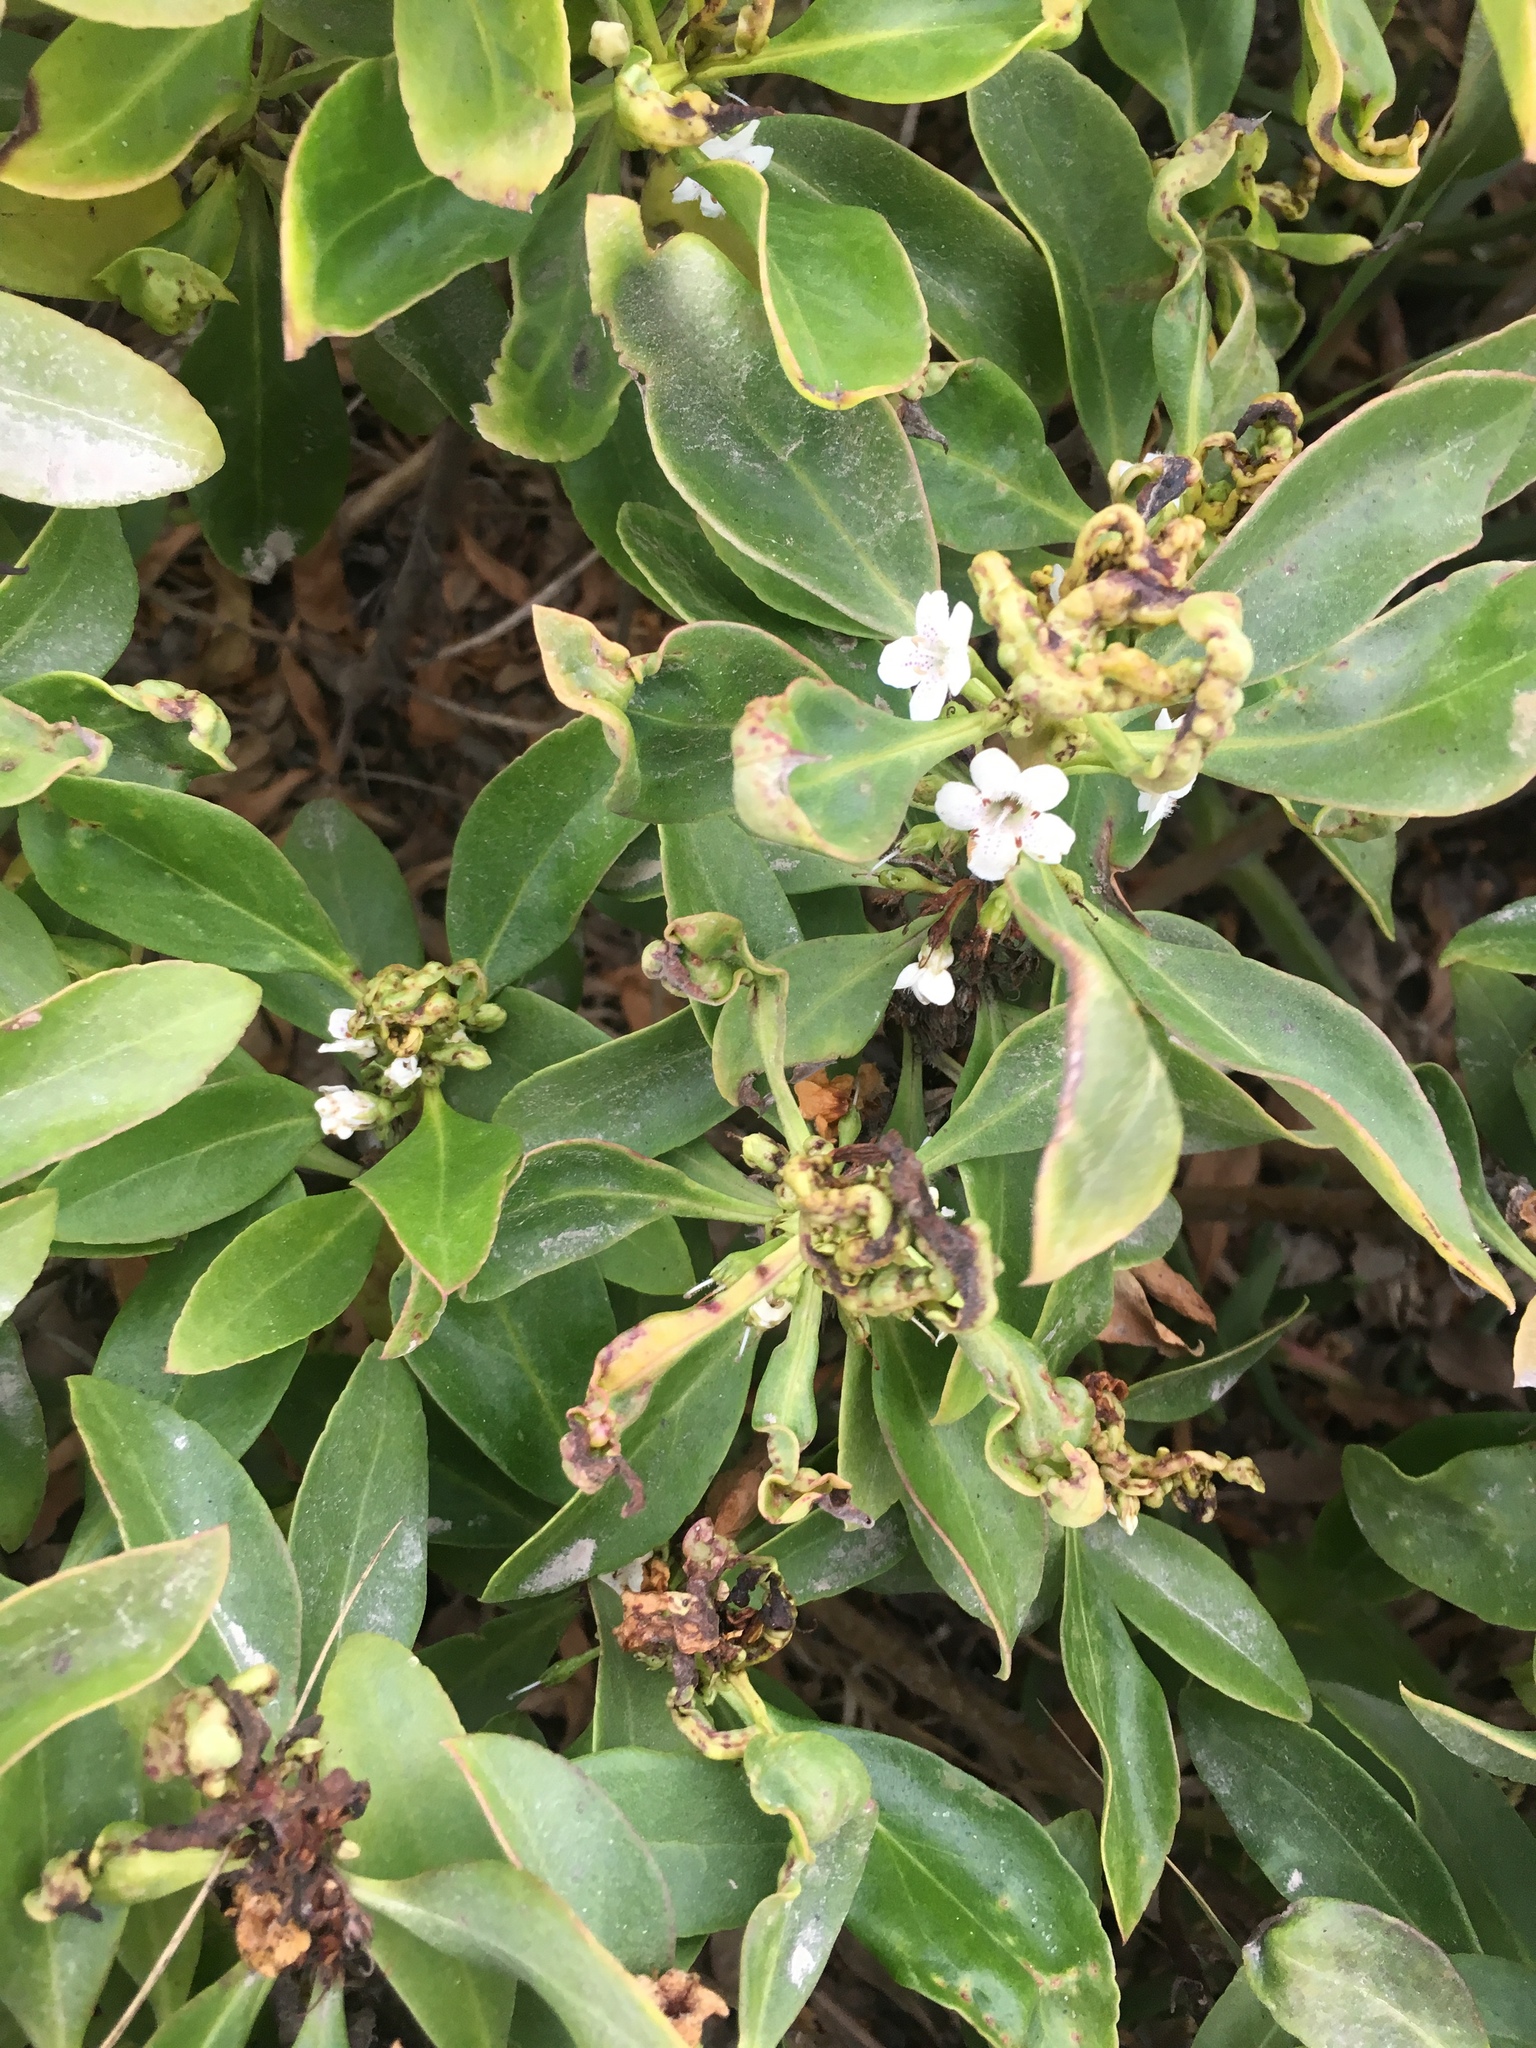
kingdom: Plantae
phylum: Tracheophyta
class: Magnoliopsida
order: Lamiales
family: Scrophulariaceae
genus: Myoporum
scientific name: Myoporum laetum
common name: Ngaio tree
